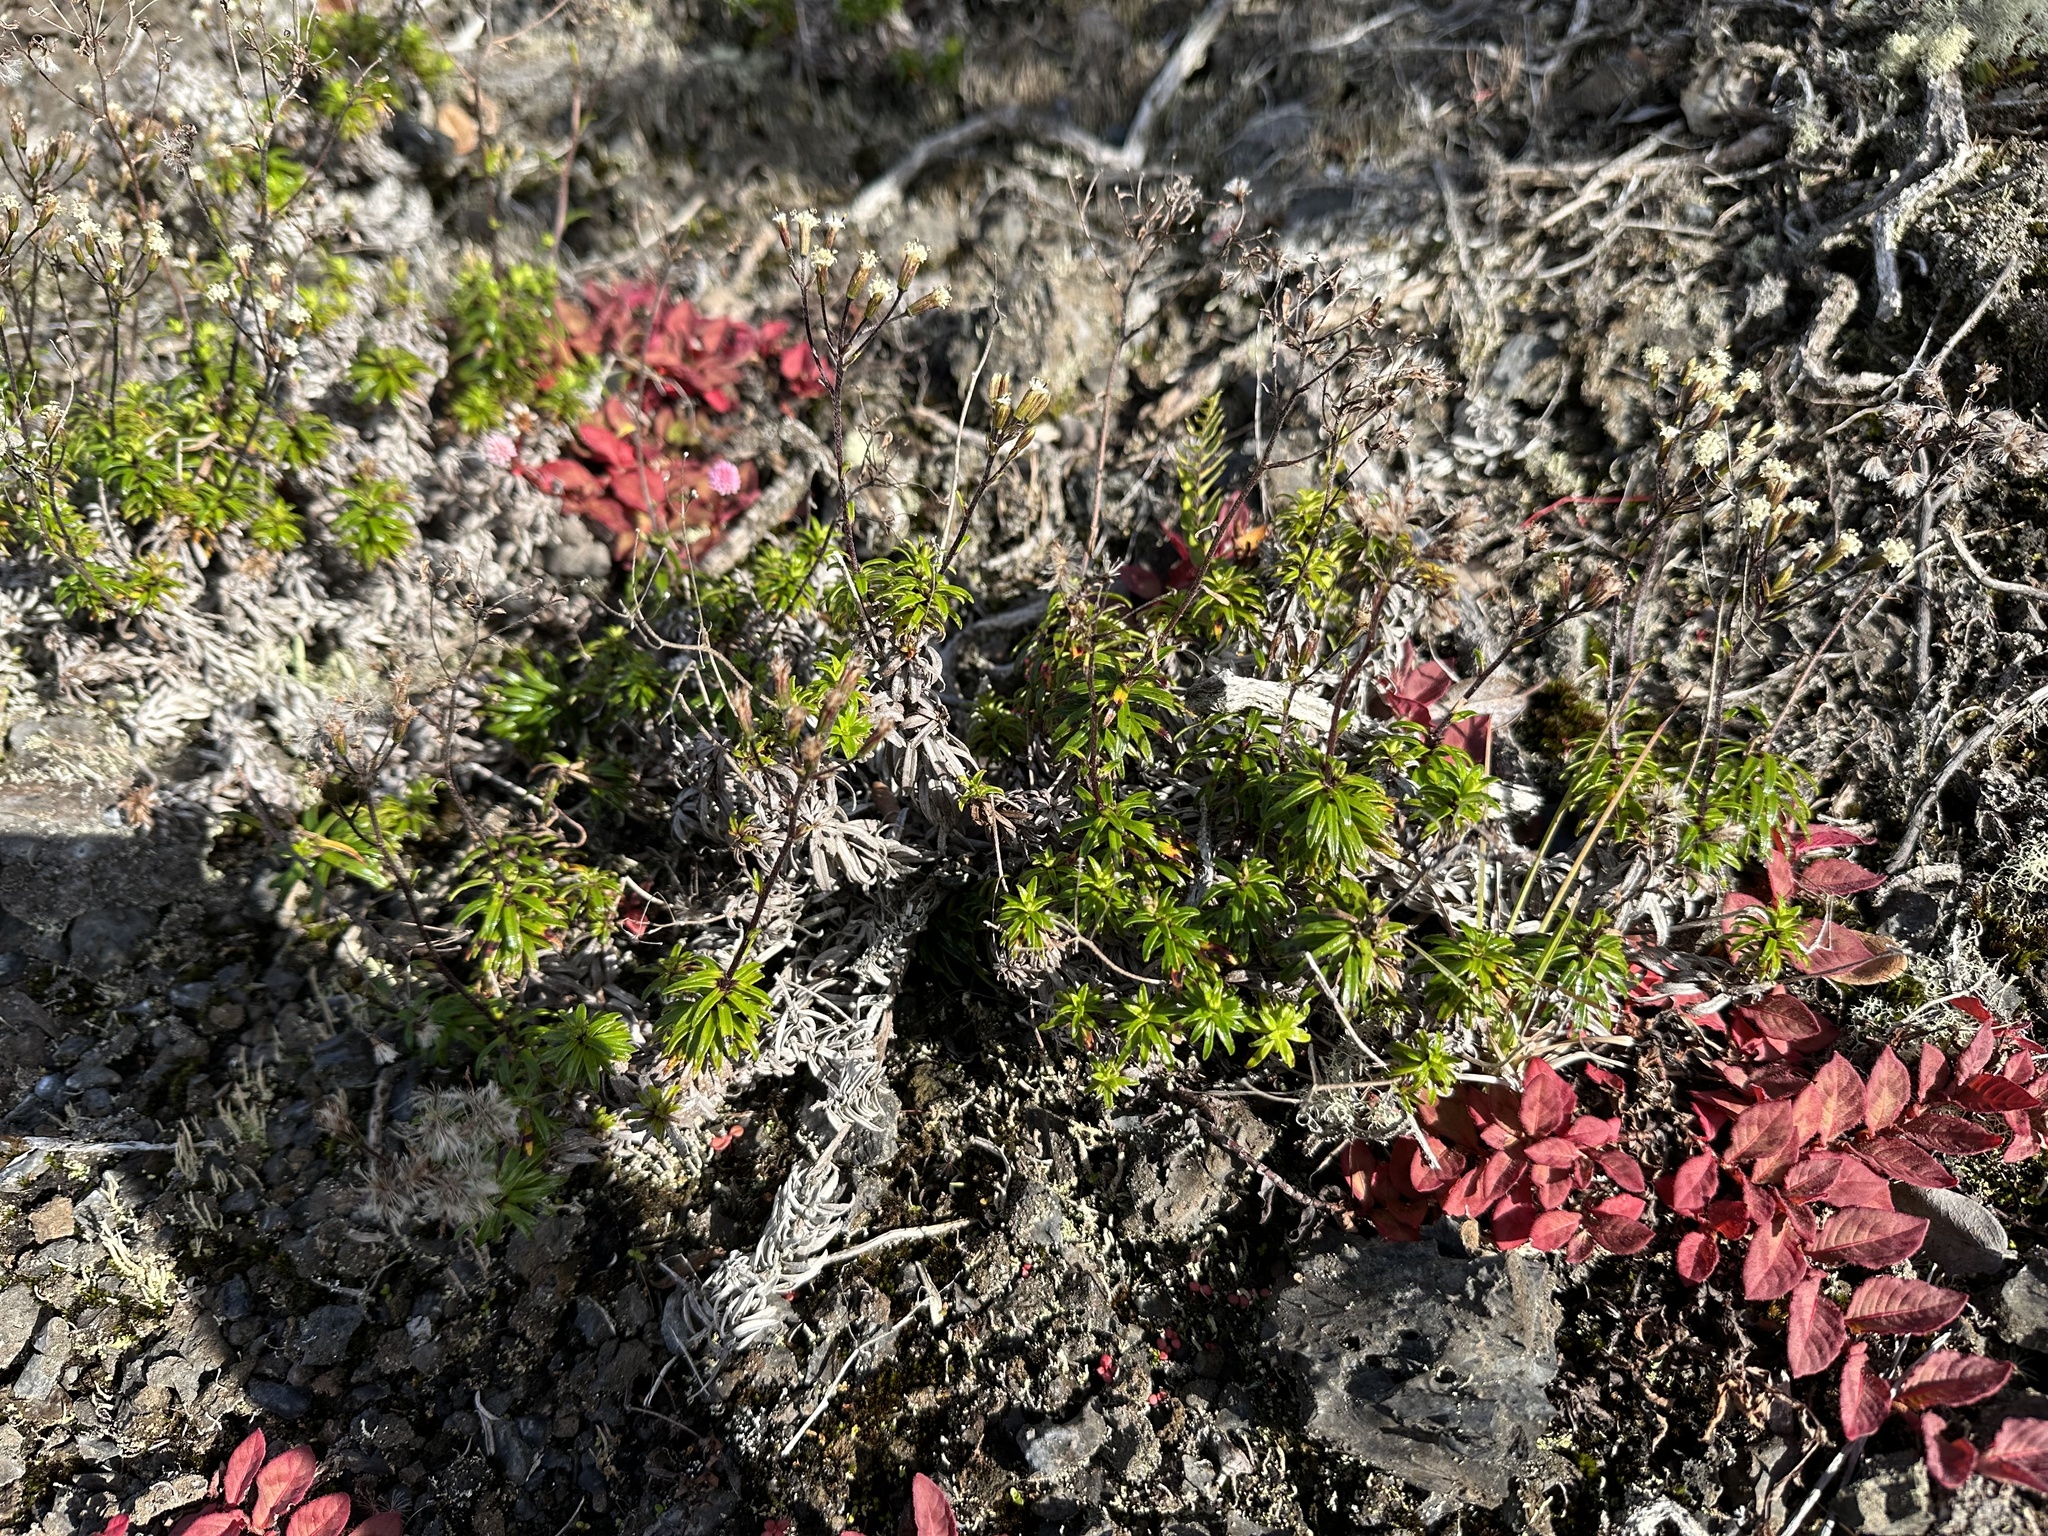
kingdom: Plantae
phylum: Tracheophyta
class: Magnoliopsida
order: Asterales
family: Asteraceae
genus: Dubautia
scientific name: Dubautia scabra
